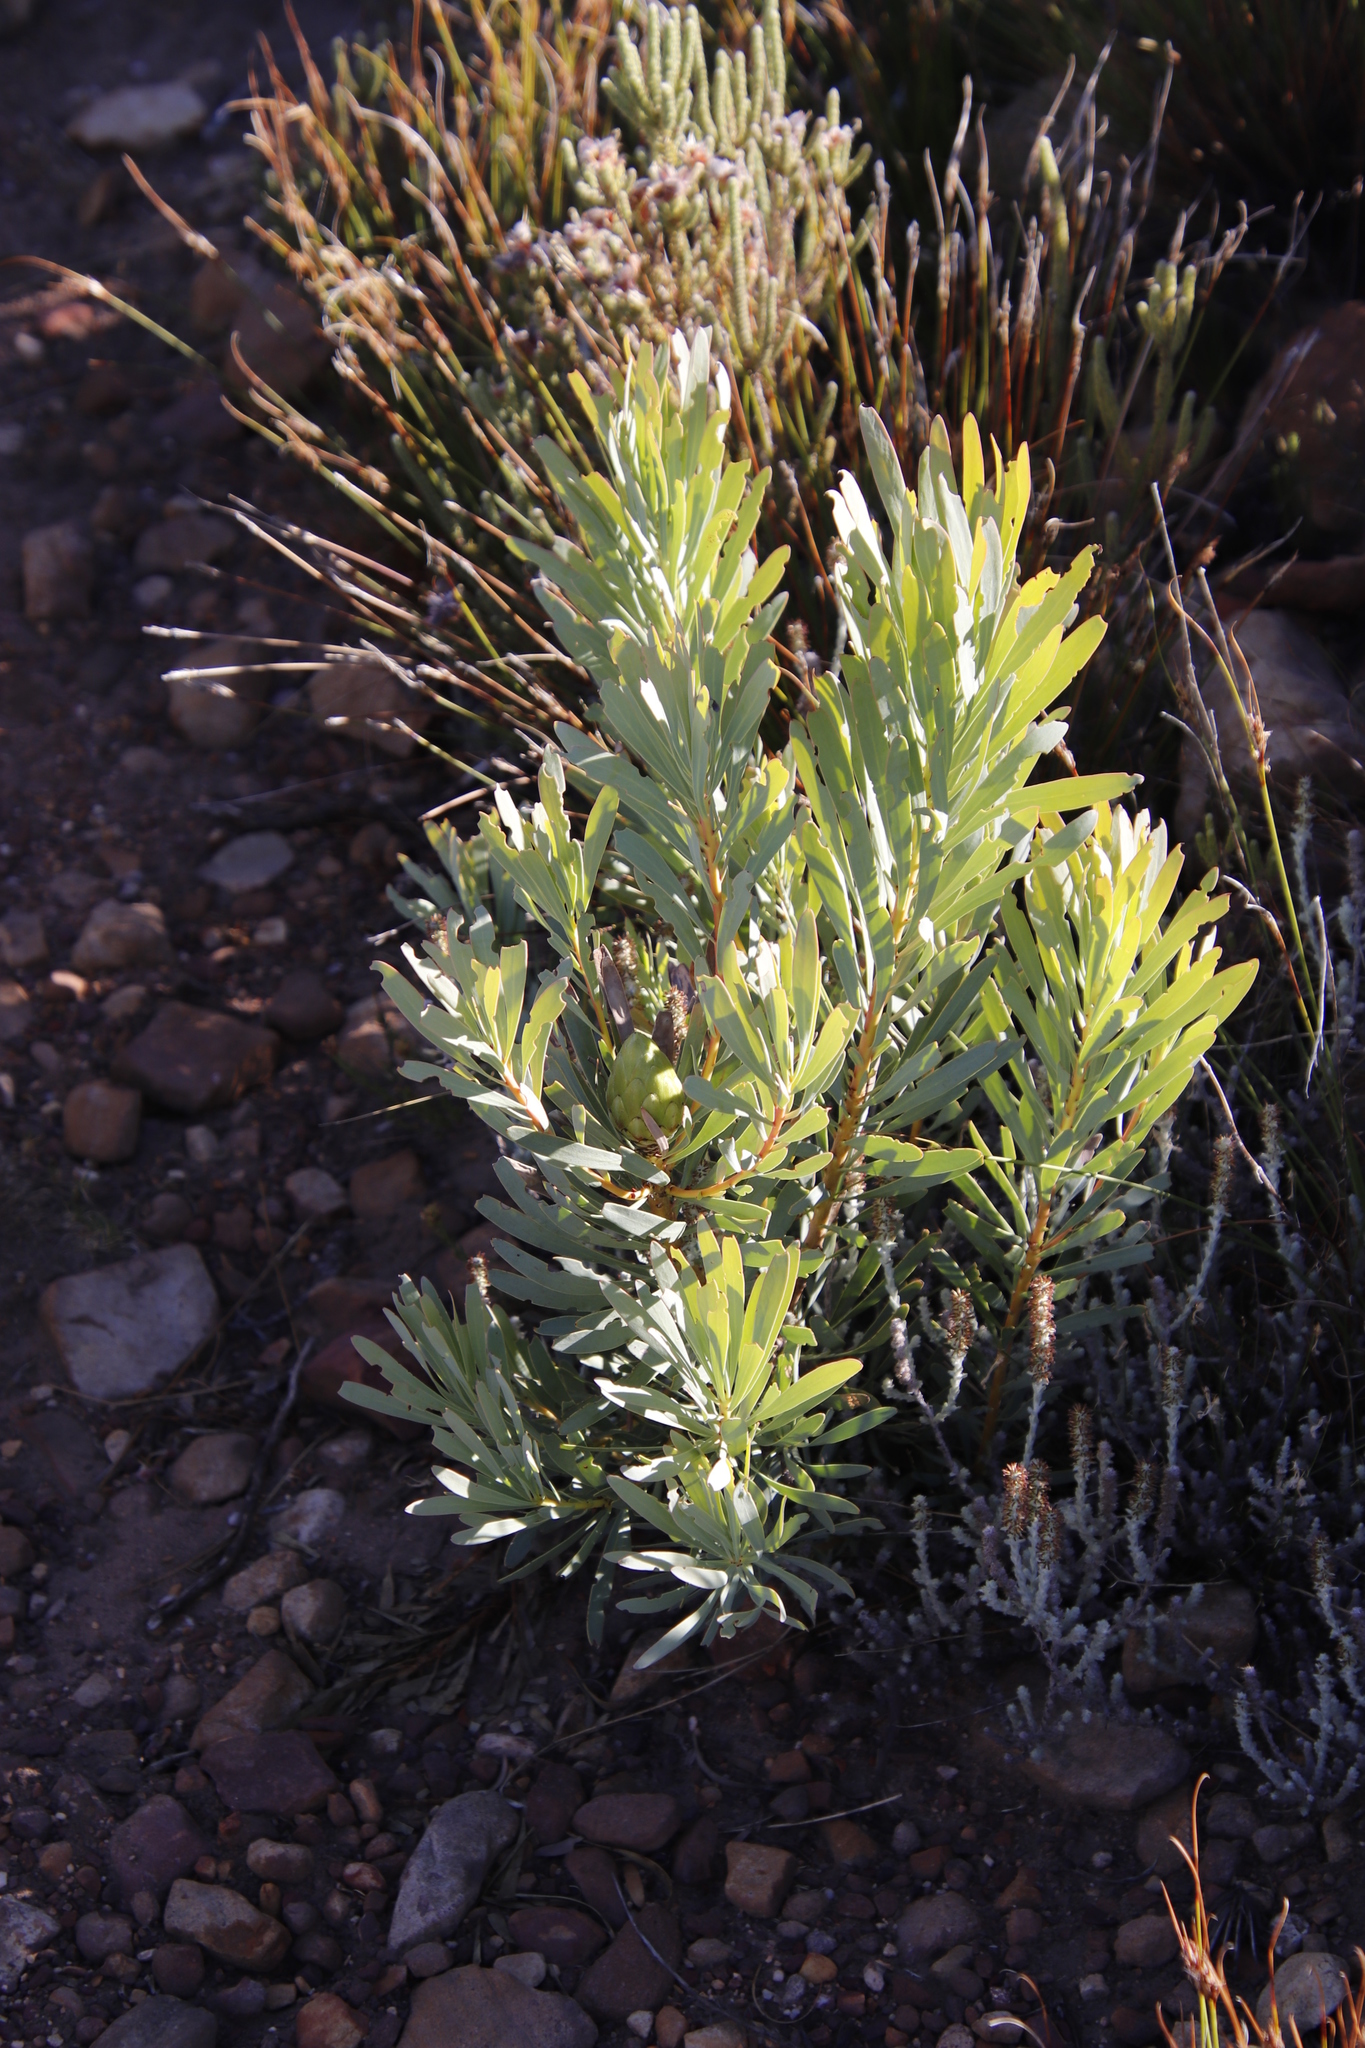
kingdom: Plantae
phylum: Tracheophyta
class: Magnoliopsida
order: Proteales
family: Proteaceae
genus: Protea
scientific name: Protea repens
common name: Sugarbush
